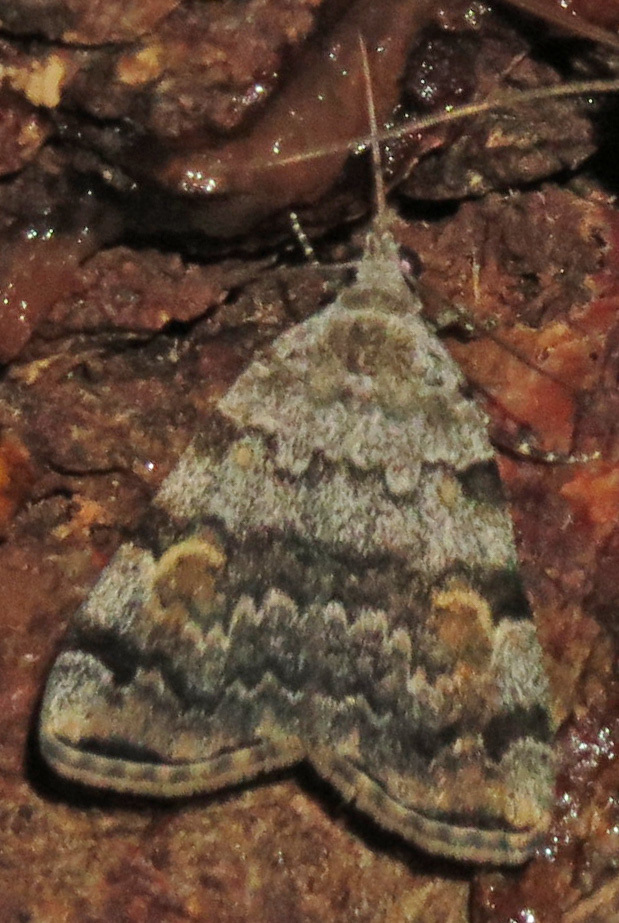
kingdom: Animalia
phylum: Arthropoda
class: Insecta
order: Lepidoptera
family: Erebidae
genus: Idia
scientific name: Idia americalis
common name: American idia moth
